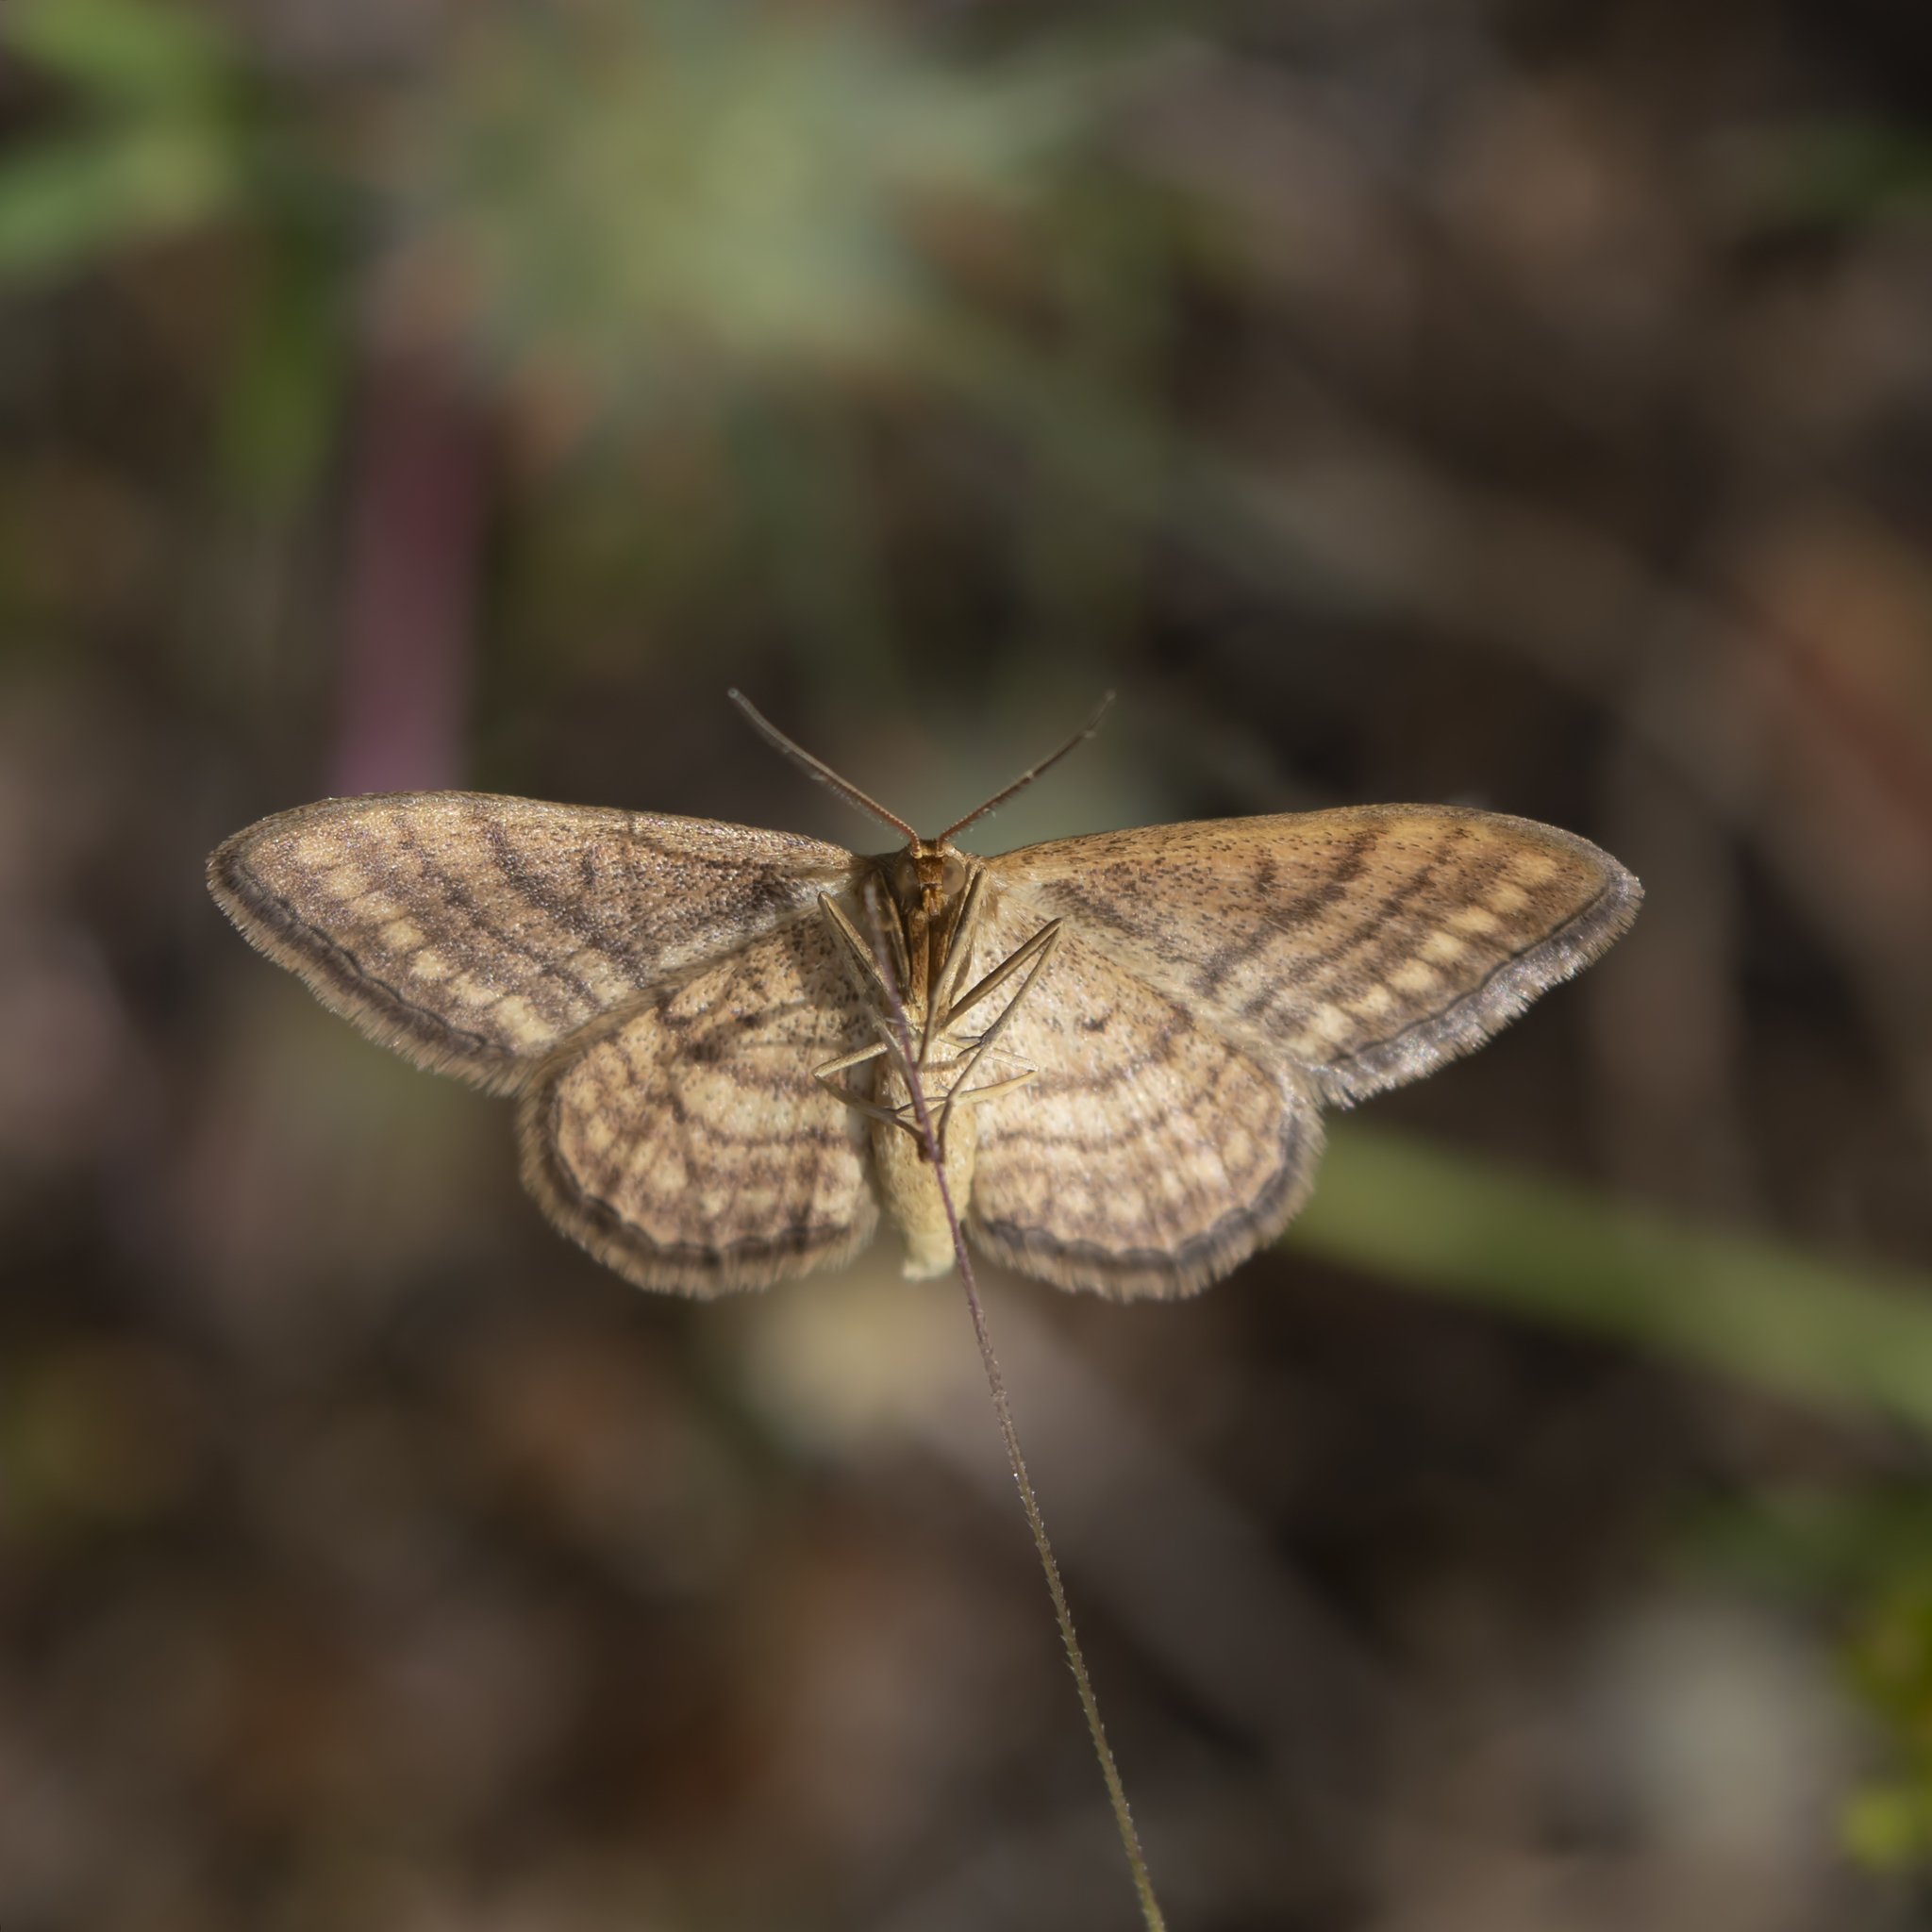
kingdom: Animalia
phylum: Arthropoda
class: Insecta
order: Lepidoptera
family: Geometridae
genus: Idaea
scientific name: Idaea ochrata
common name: Bright wave
